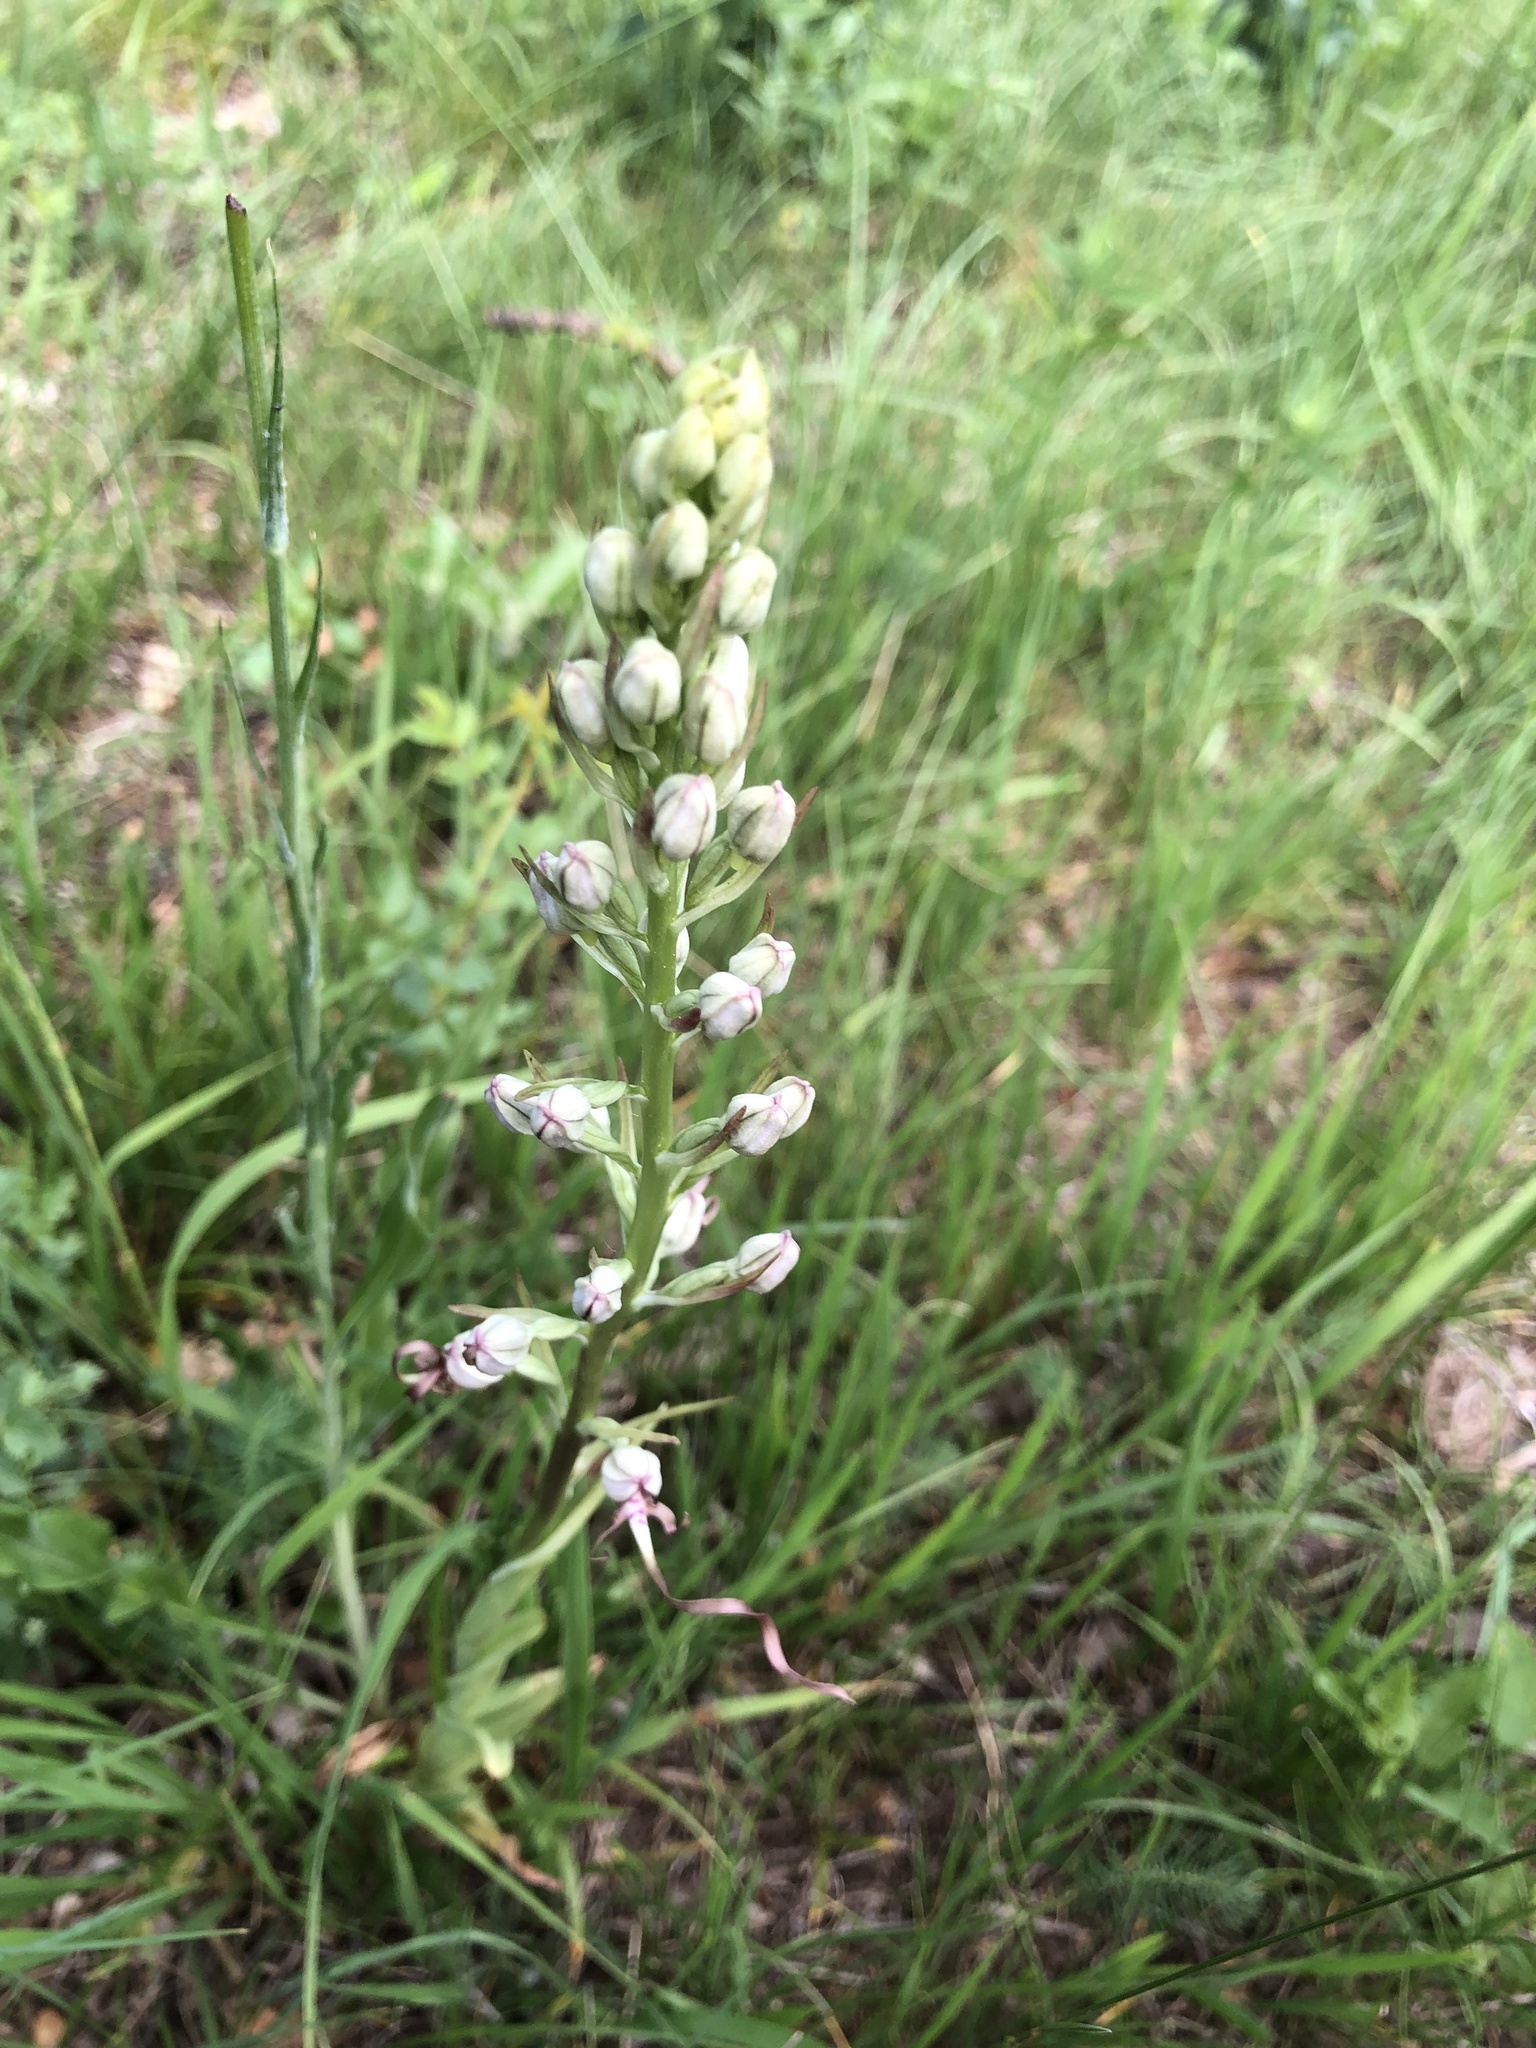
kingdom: Plantae
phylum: Tracheophyta
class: Liliopsida
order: Asparagales
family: Orchidaceae
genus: Himantoglossum
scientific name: Himantoglossum adriaticum
